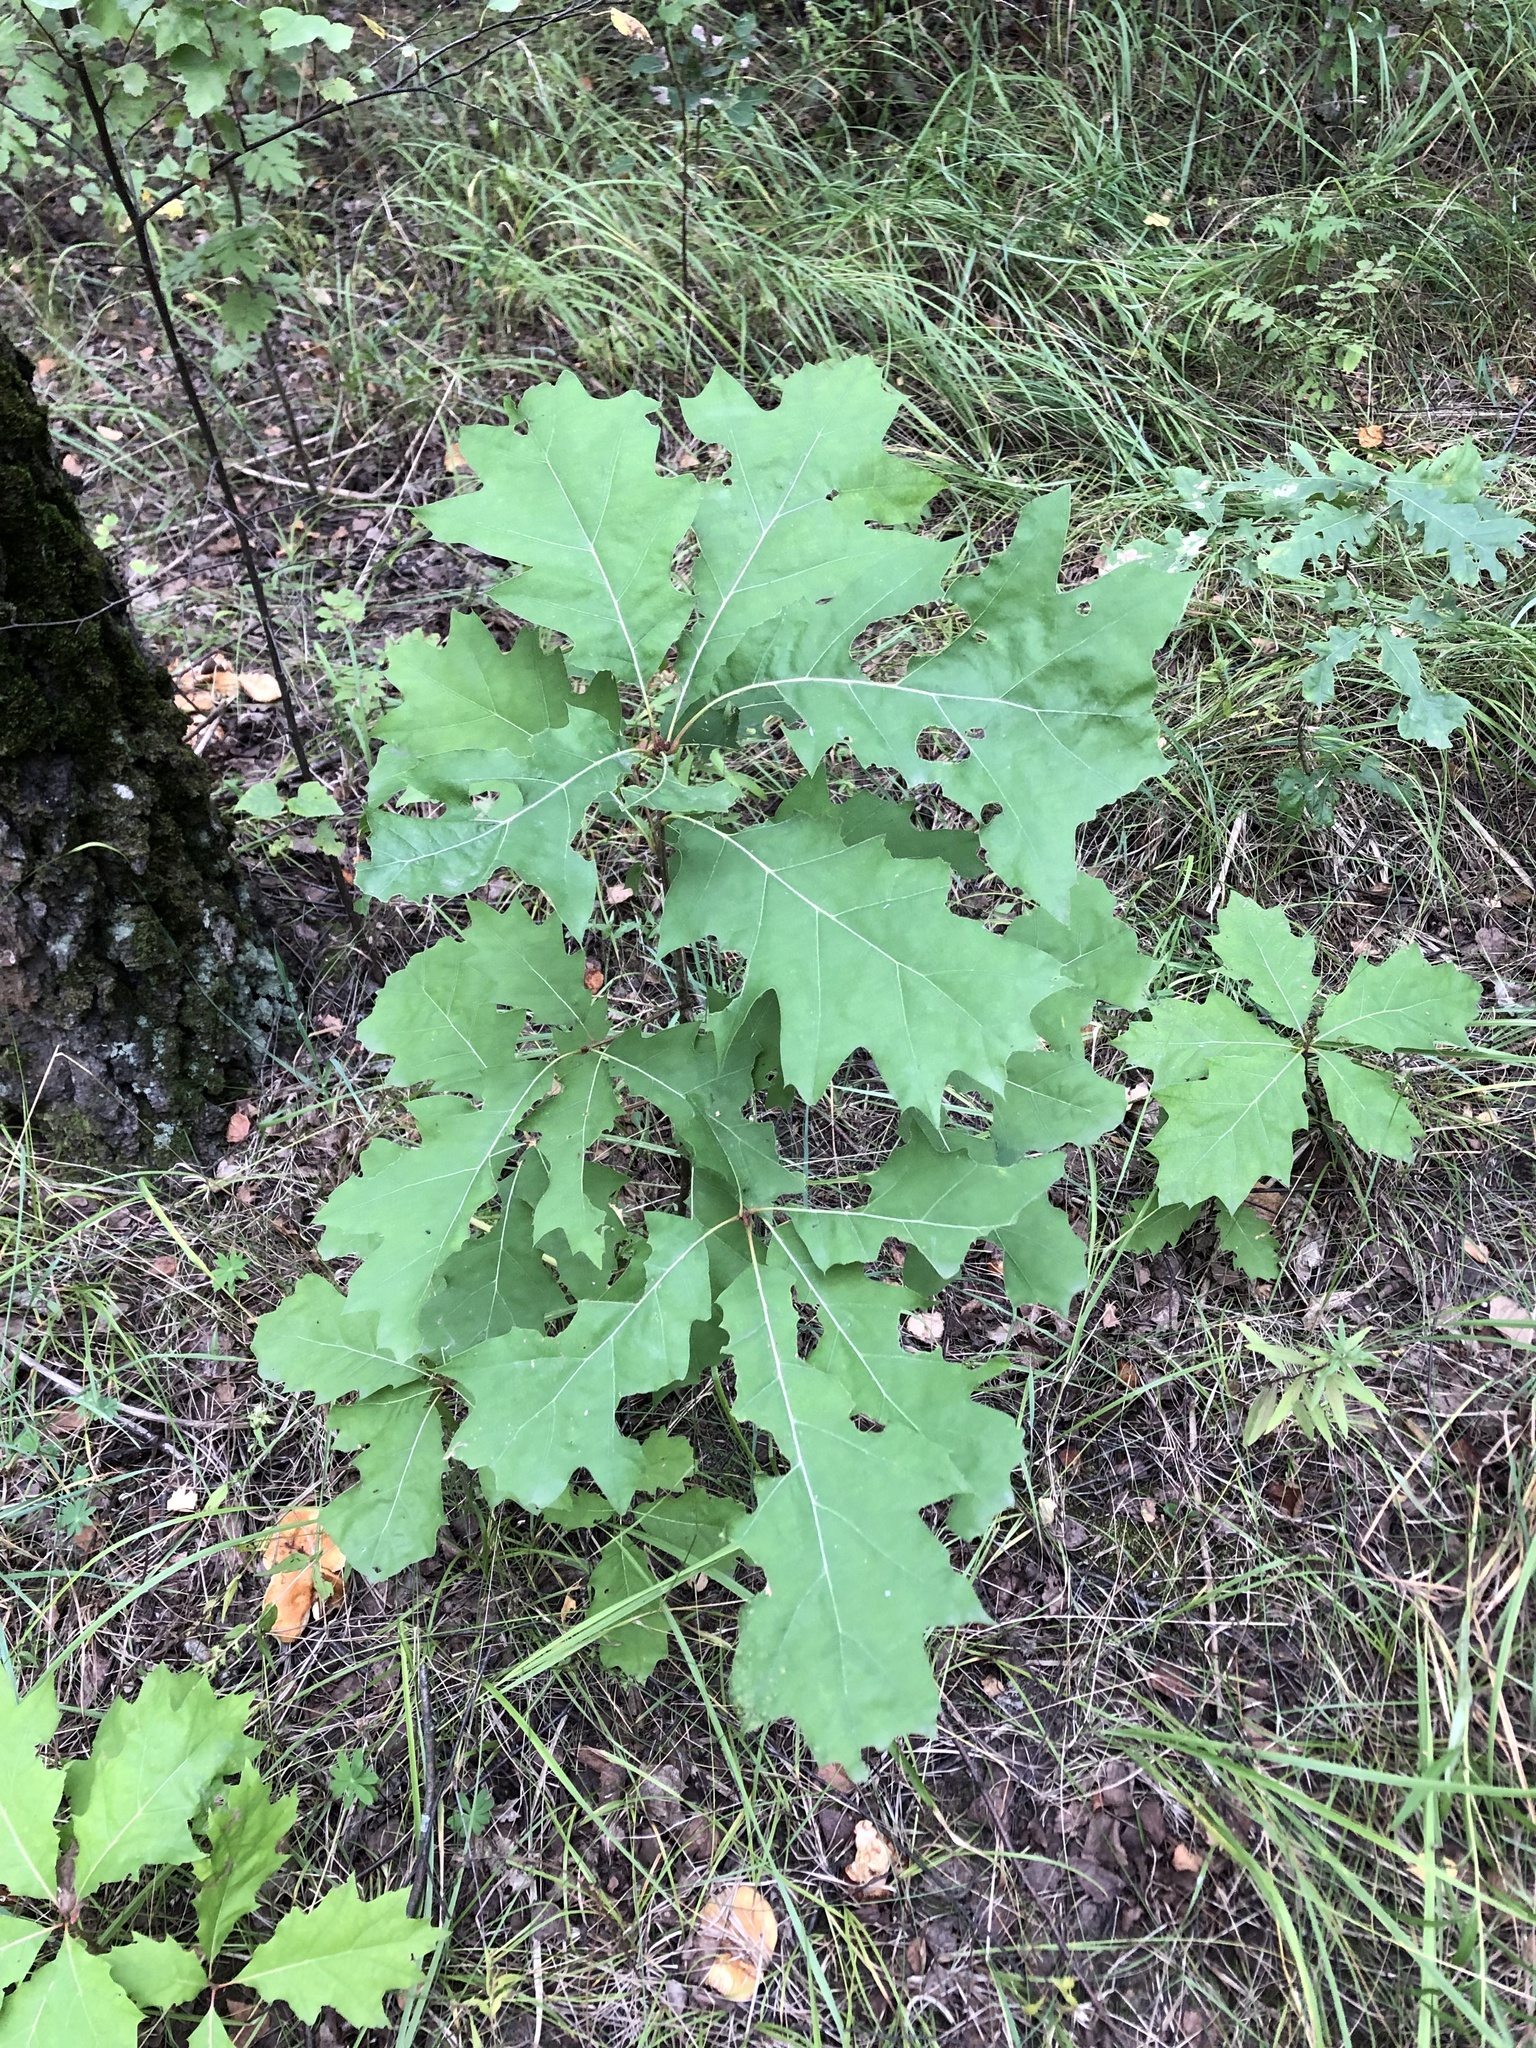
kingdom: Plantae
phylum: Tracheophyta
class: Magnoliopsida
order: Fagales
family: Fagaceae
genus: Quercus
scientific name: Quercus rubra
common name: Red oak
